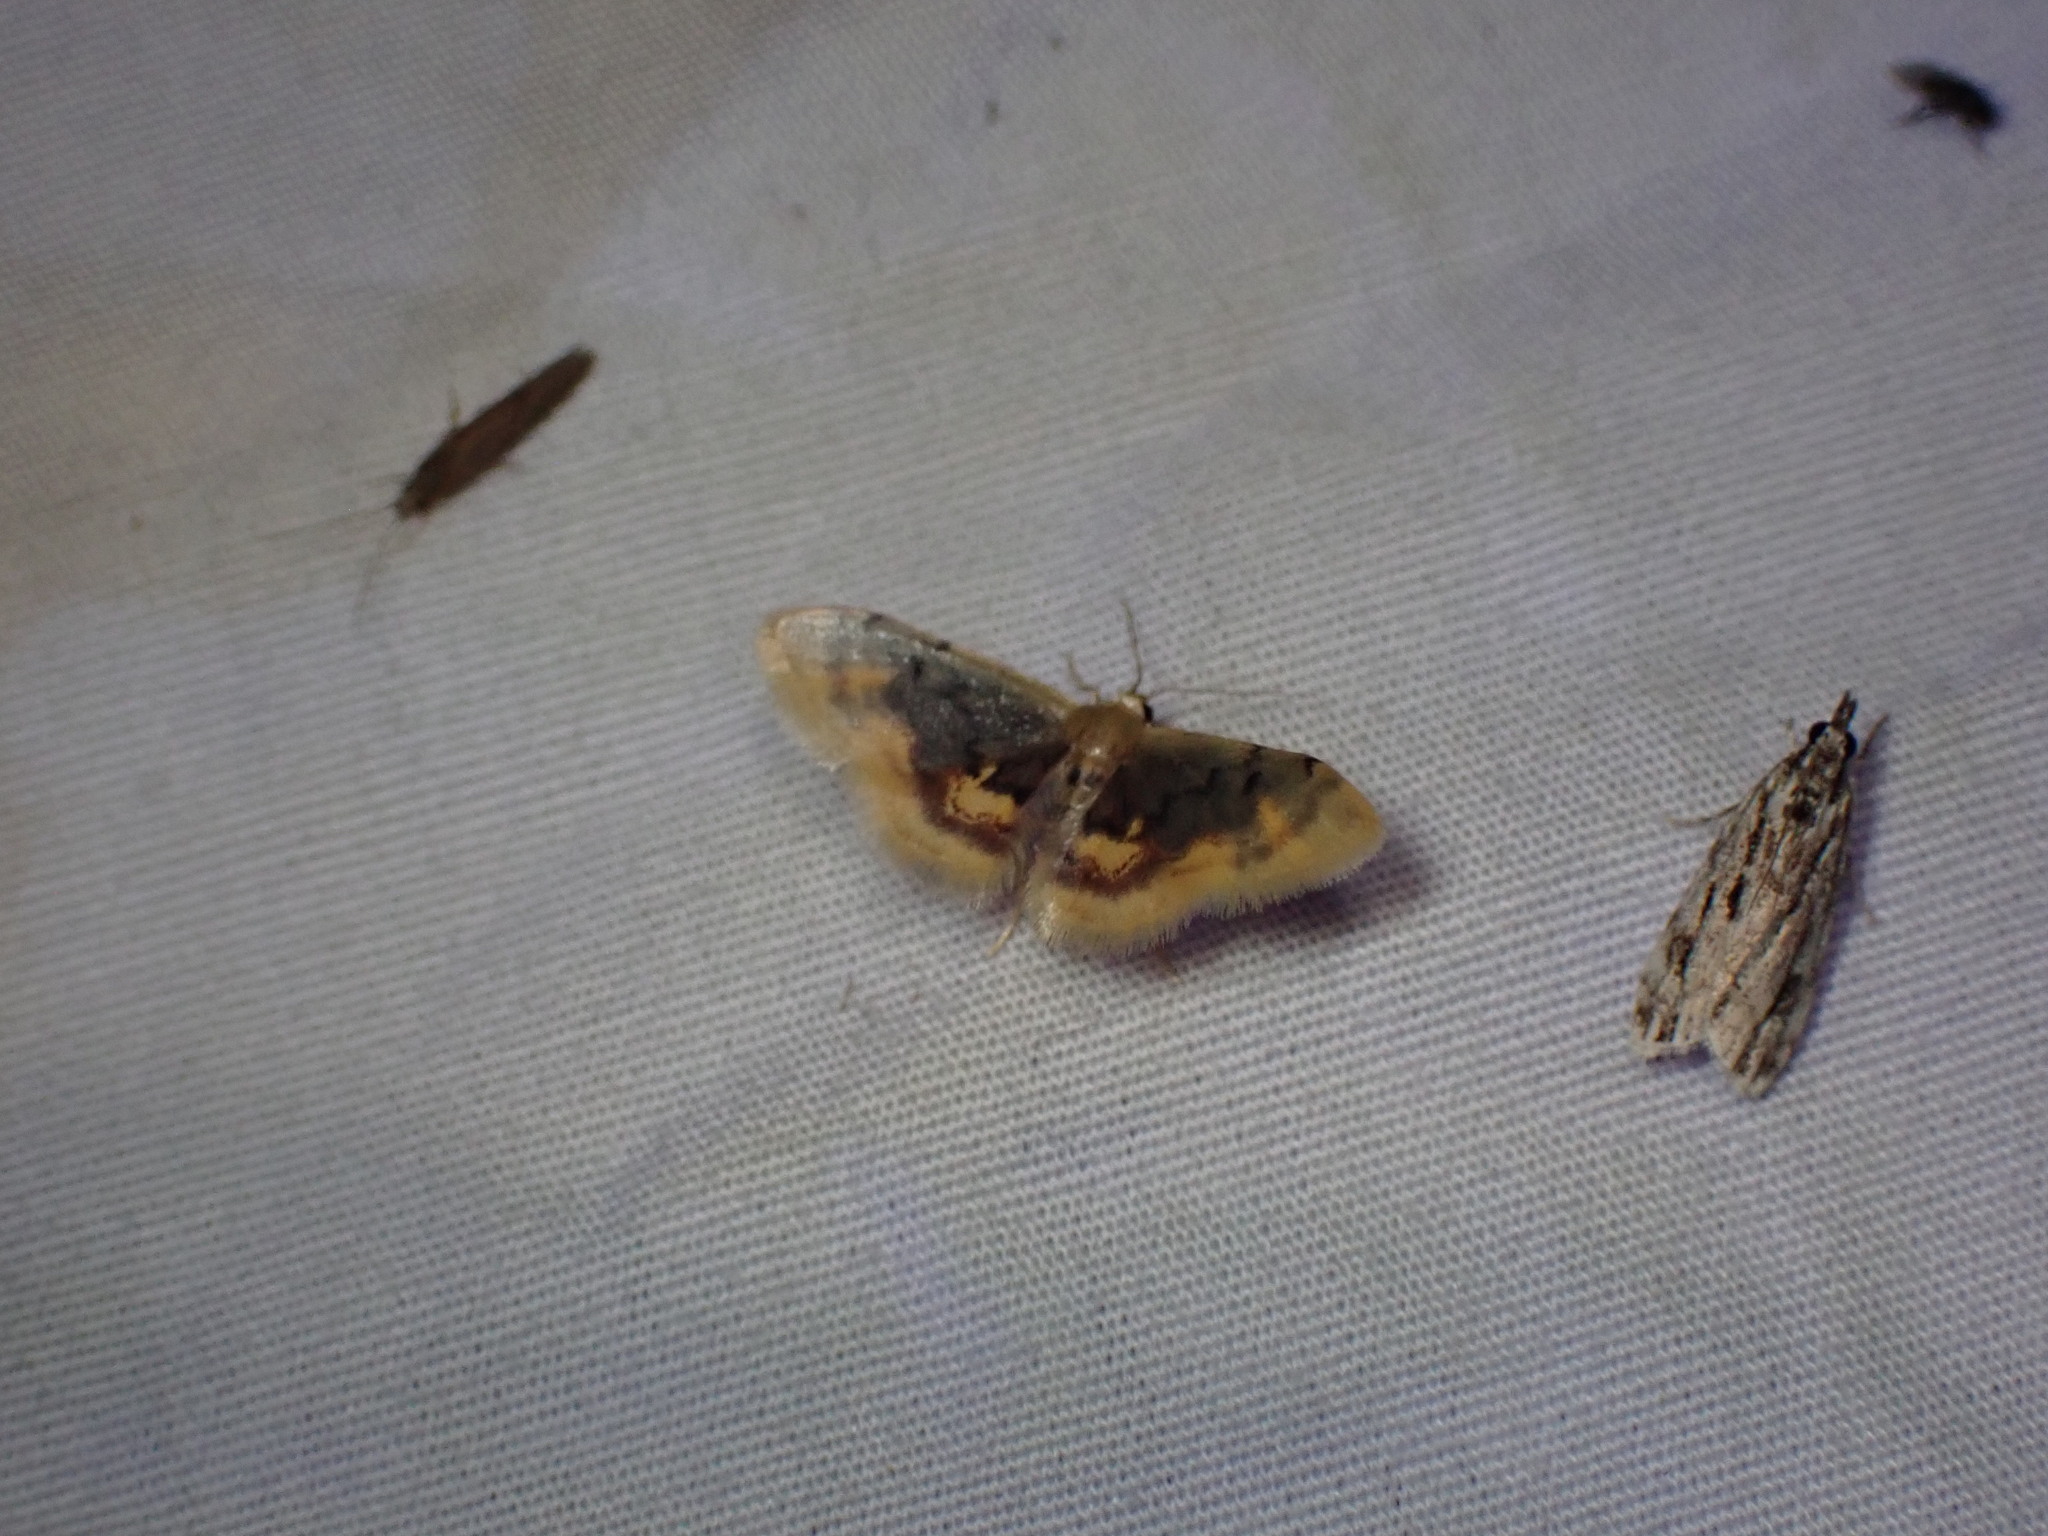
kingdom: Animalia
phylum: Arthropoda
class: Insecta
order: Lepidoptera
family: Geometridae
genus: Idaea
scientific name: Idaea scintillularia
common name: Diminutive wave
